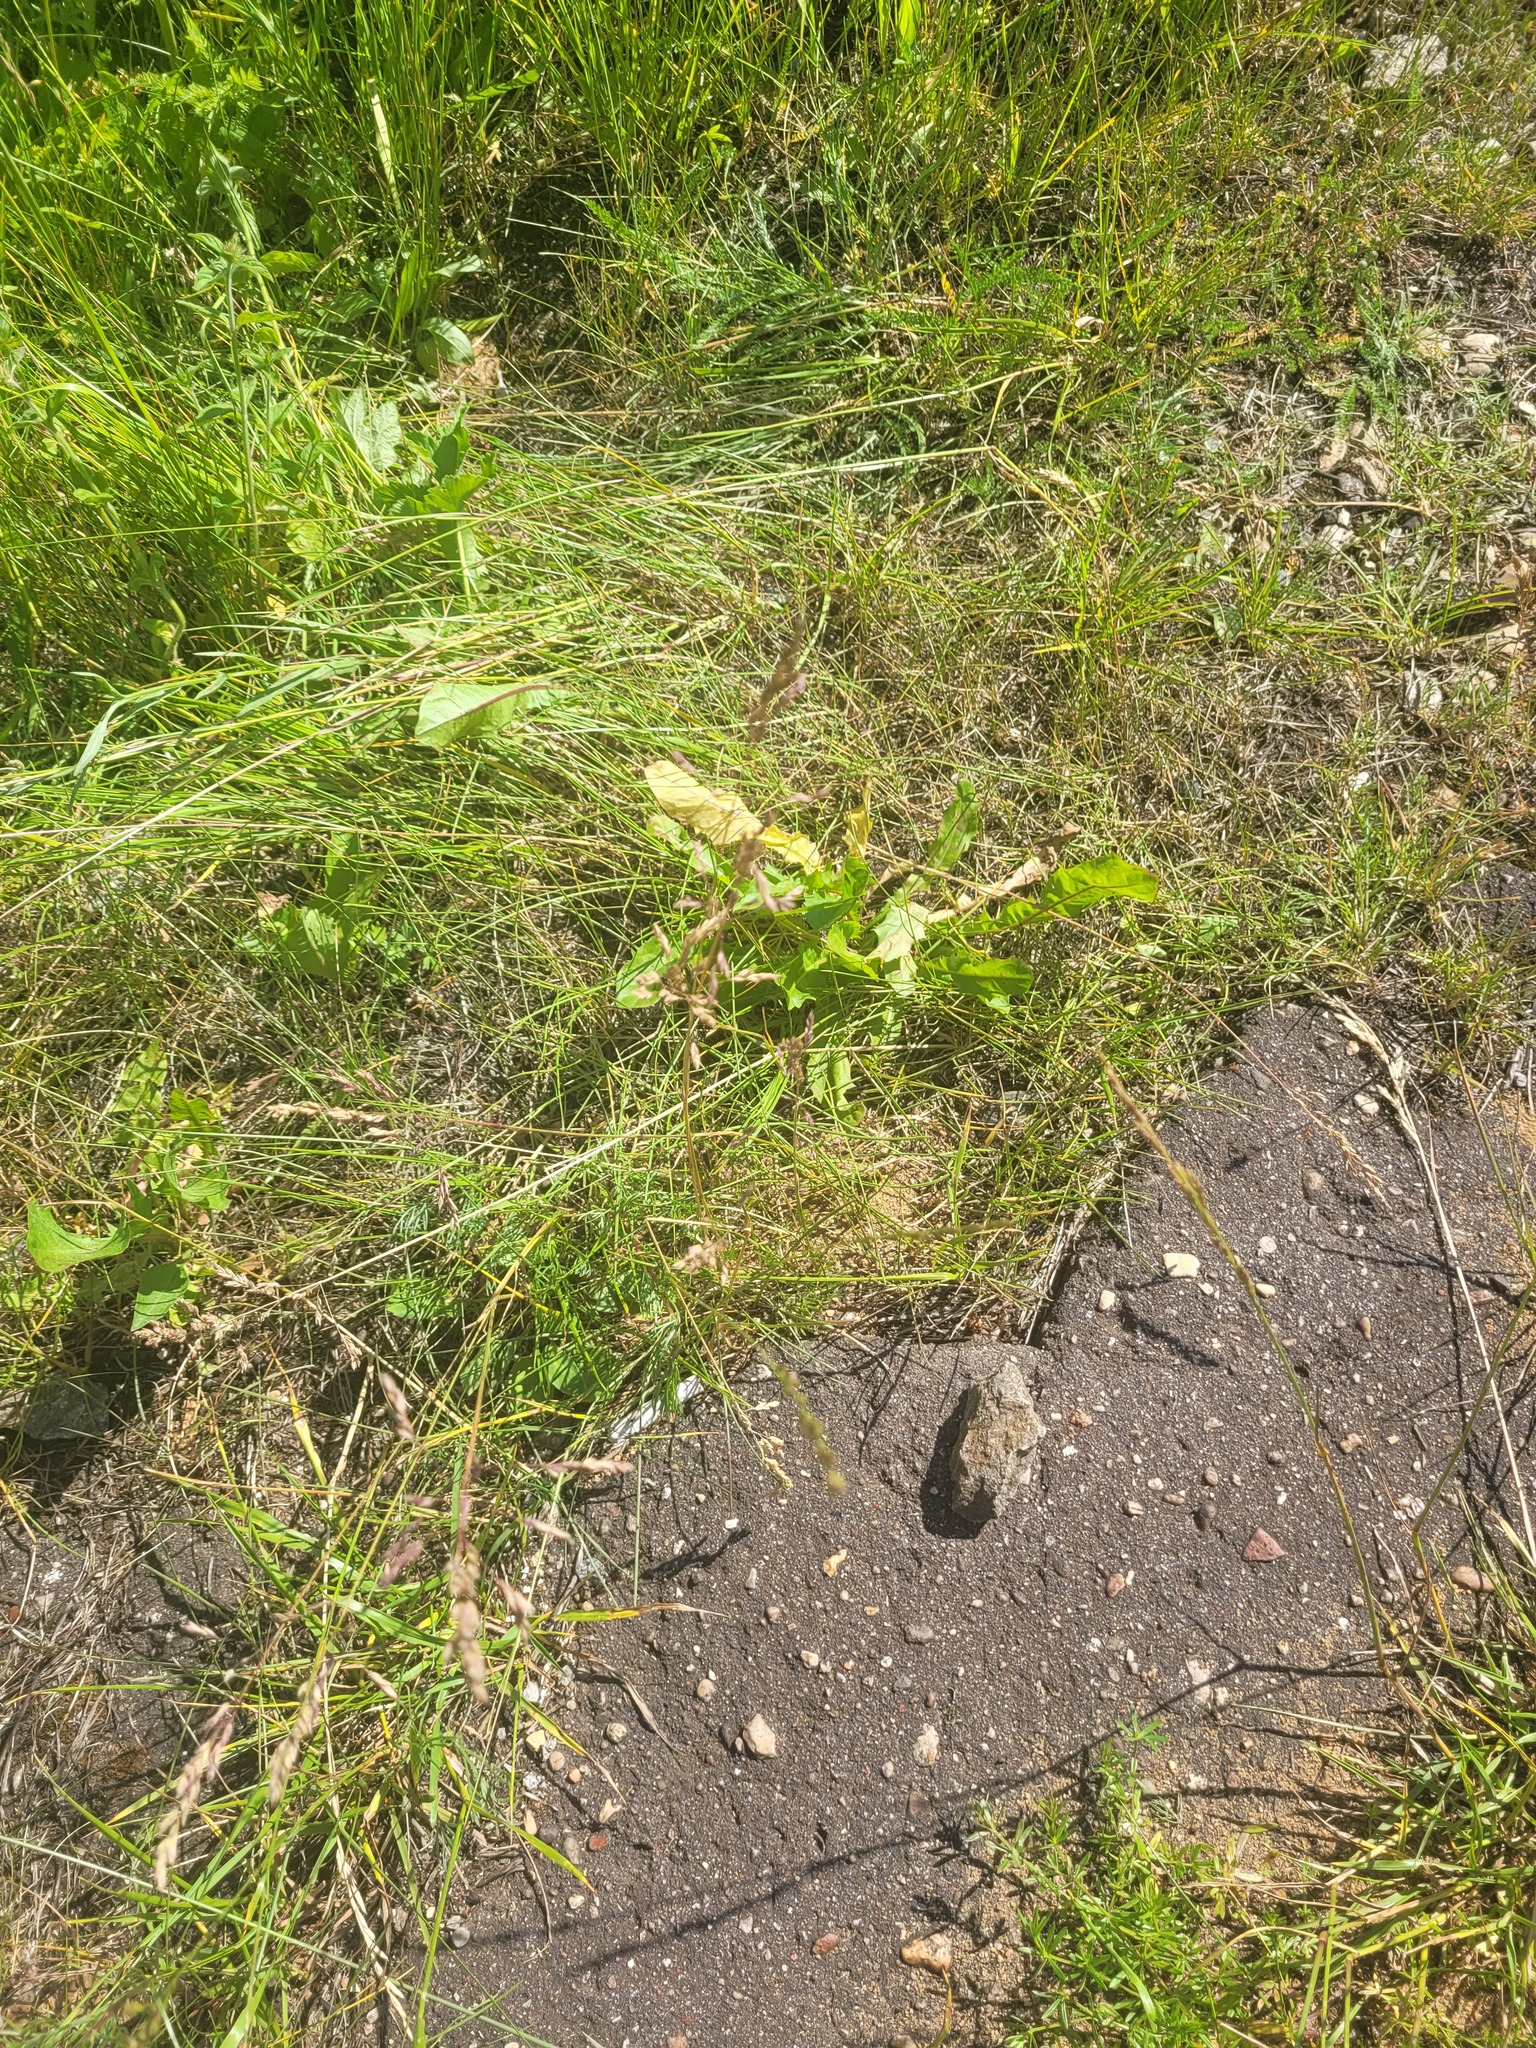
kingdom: Plantae
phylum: Tracheophyta
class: Liliopsida
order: Poales
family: Poaceae
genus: Poa
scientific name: Poa angustifolia
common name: Narrow-leaved meadow-grass
